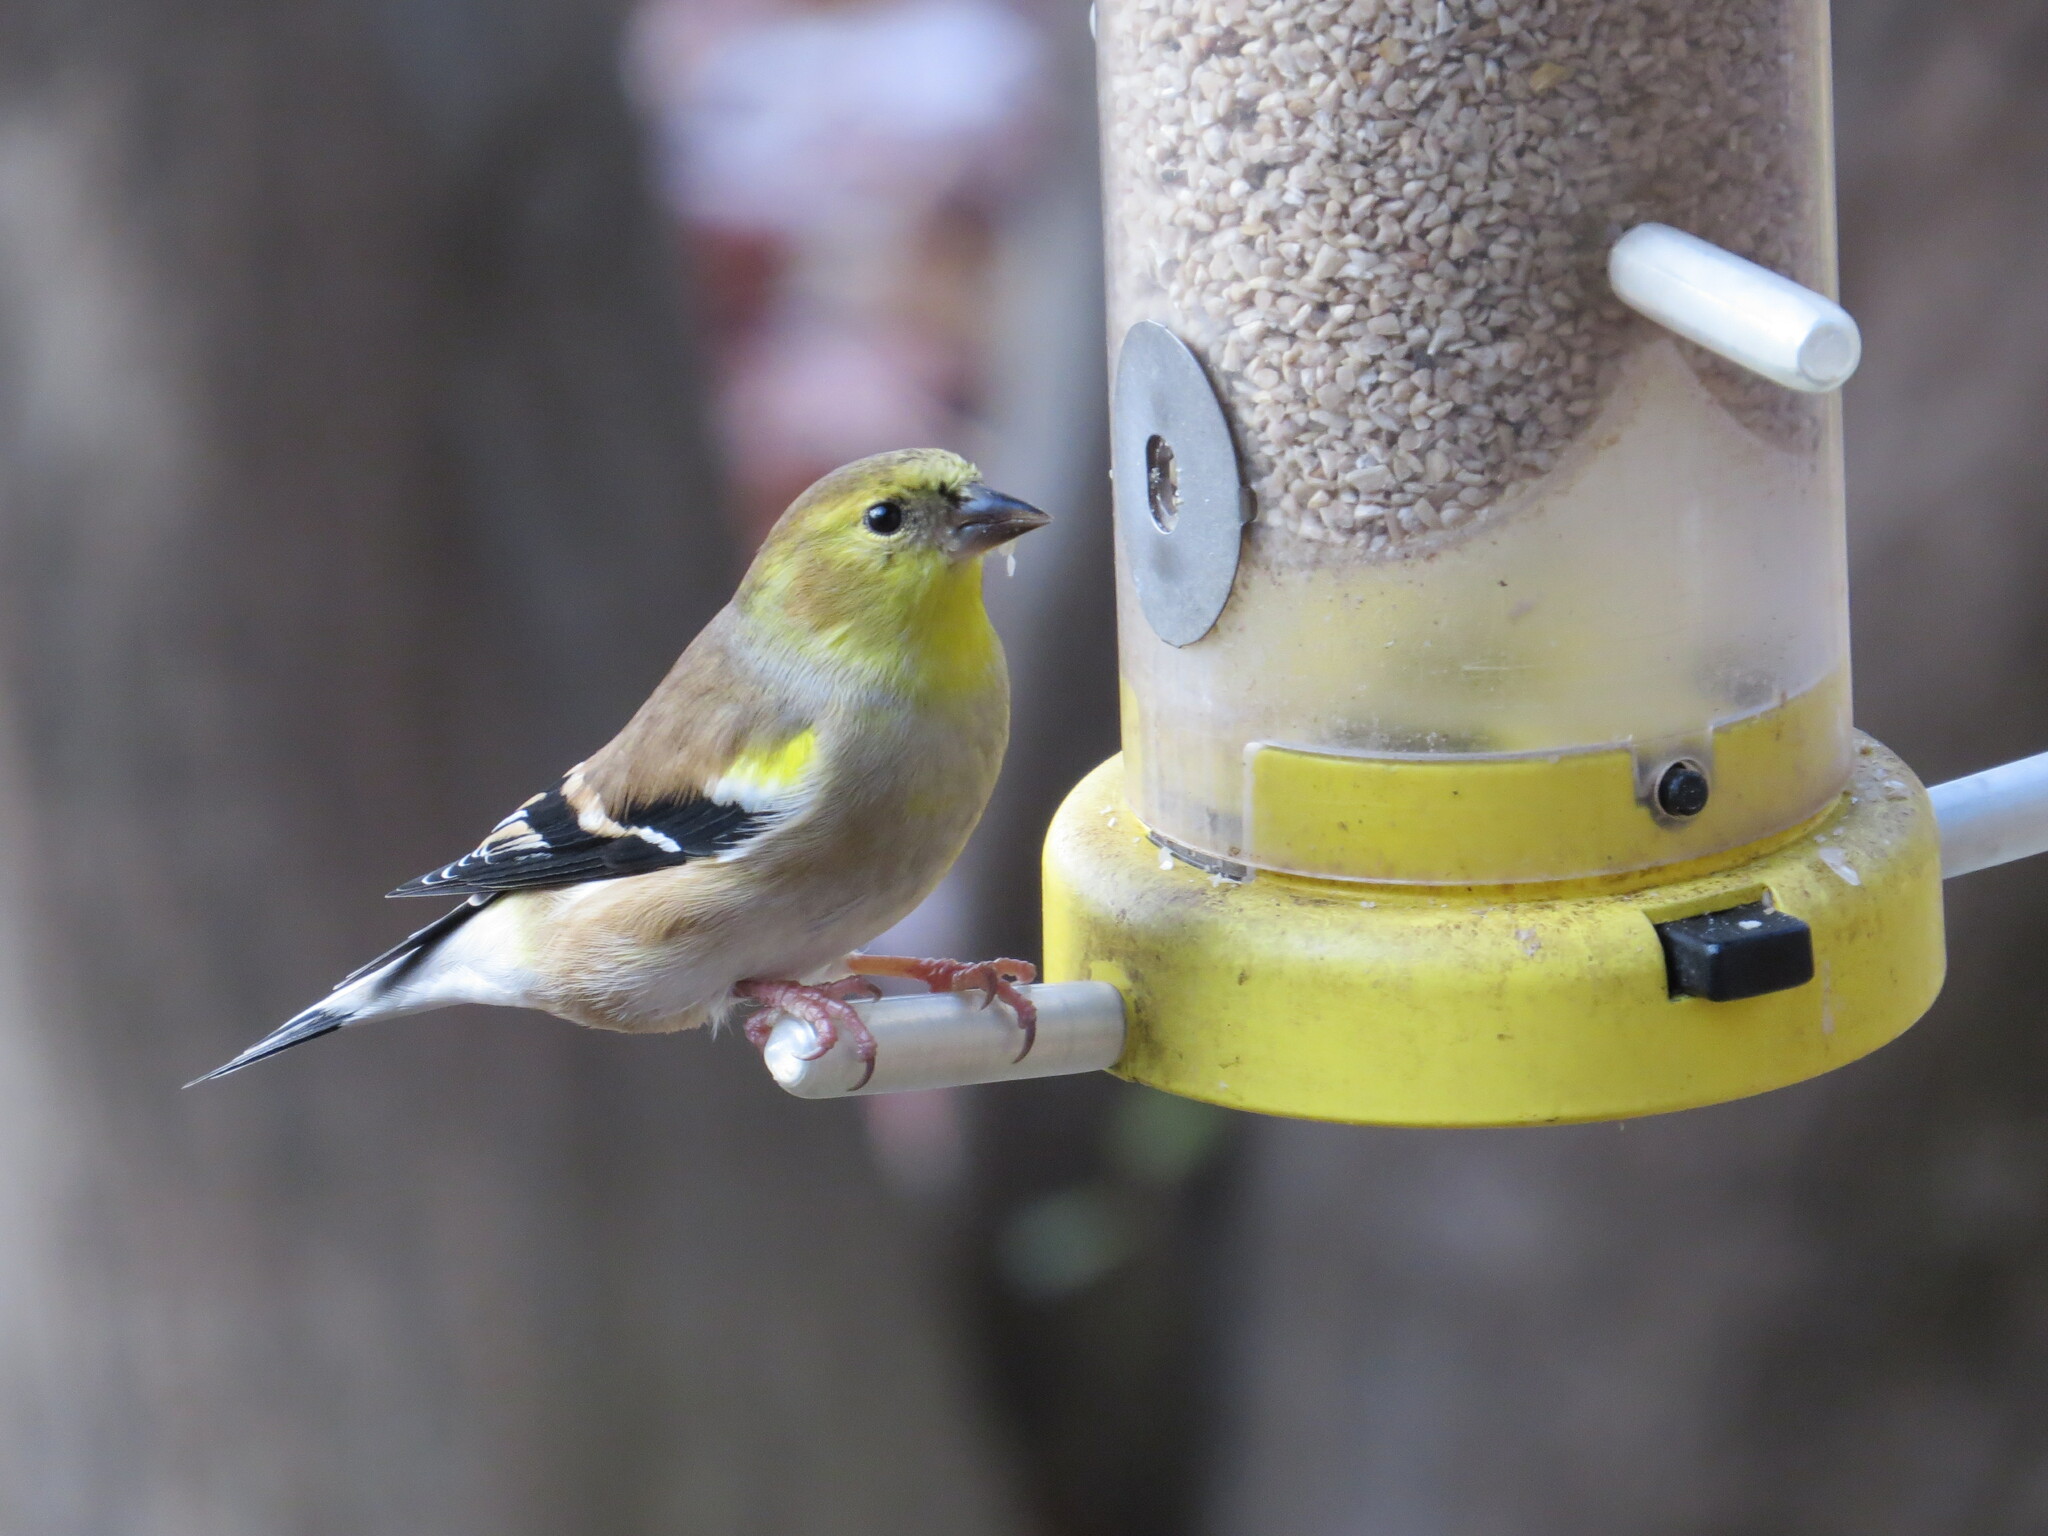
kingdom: Animalia
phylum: Chordata
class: Aves
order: Passeriformes
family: Fringillidae
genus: Spinus
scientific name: Spinus tristis
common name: American goldfinch
